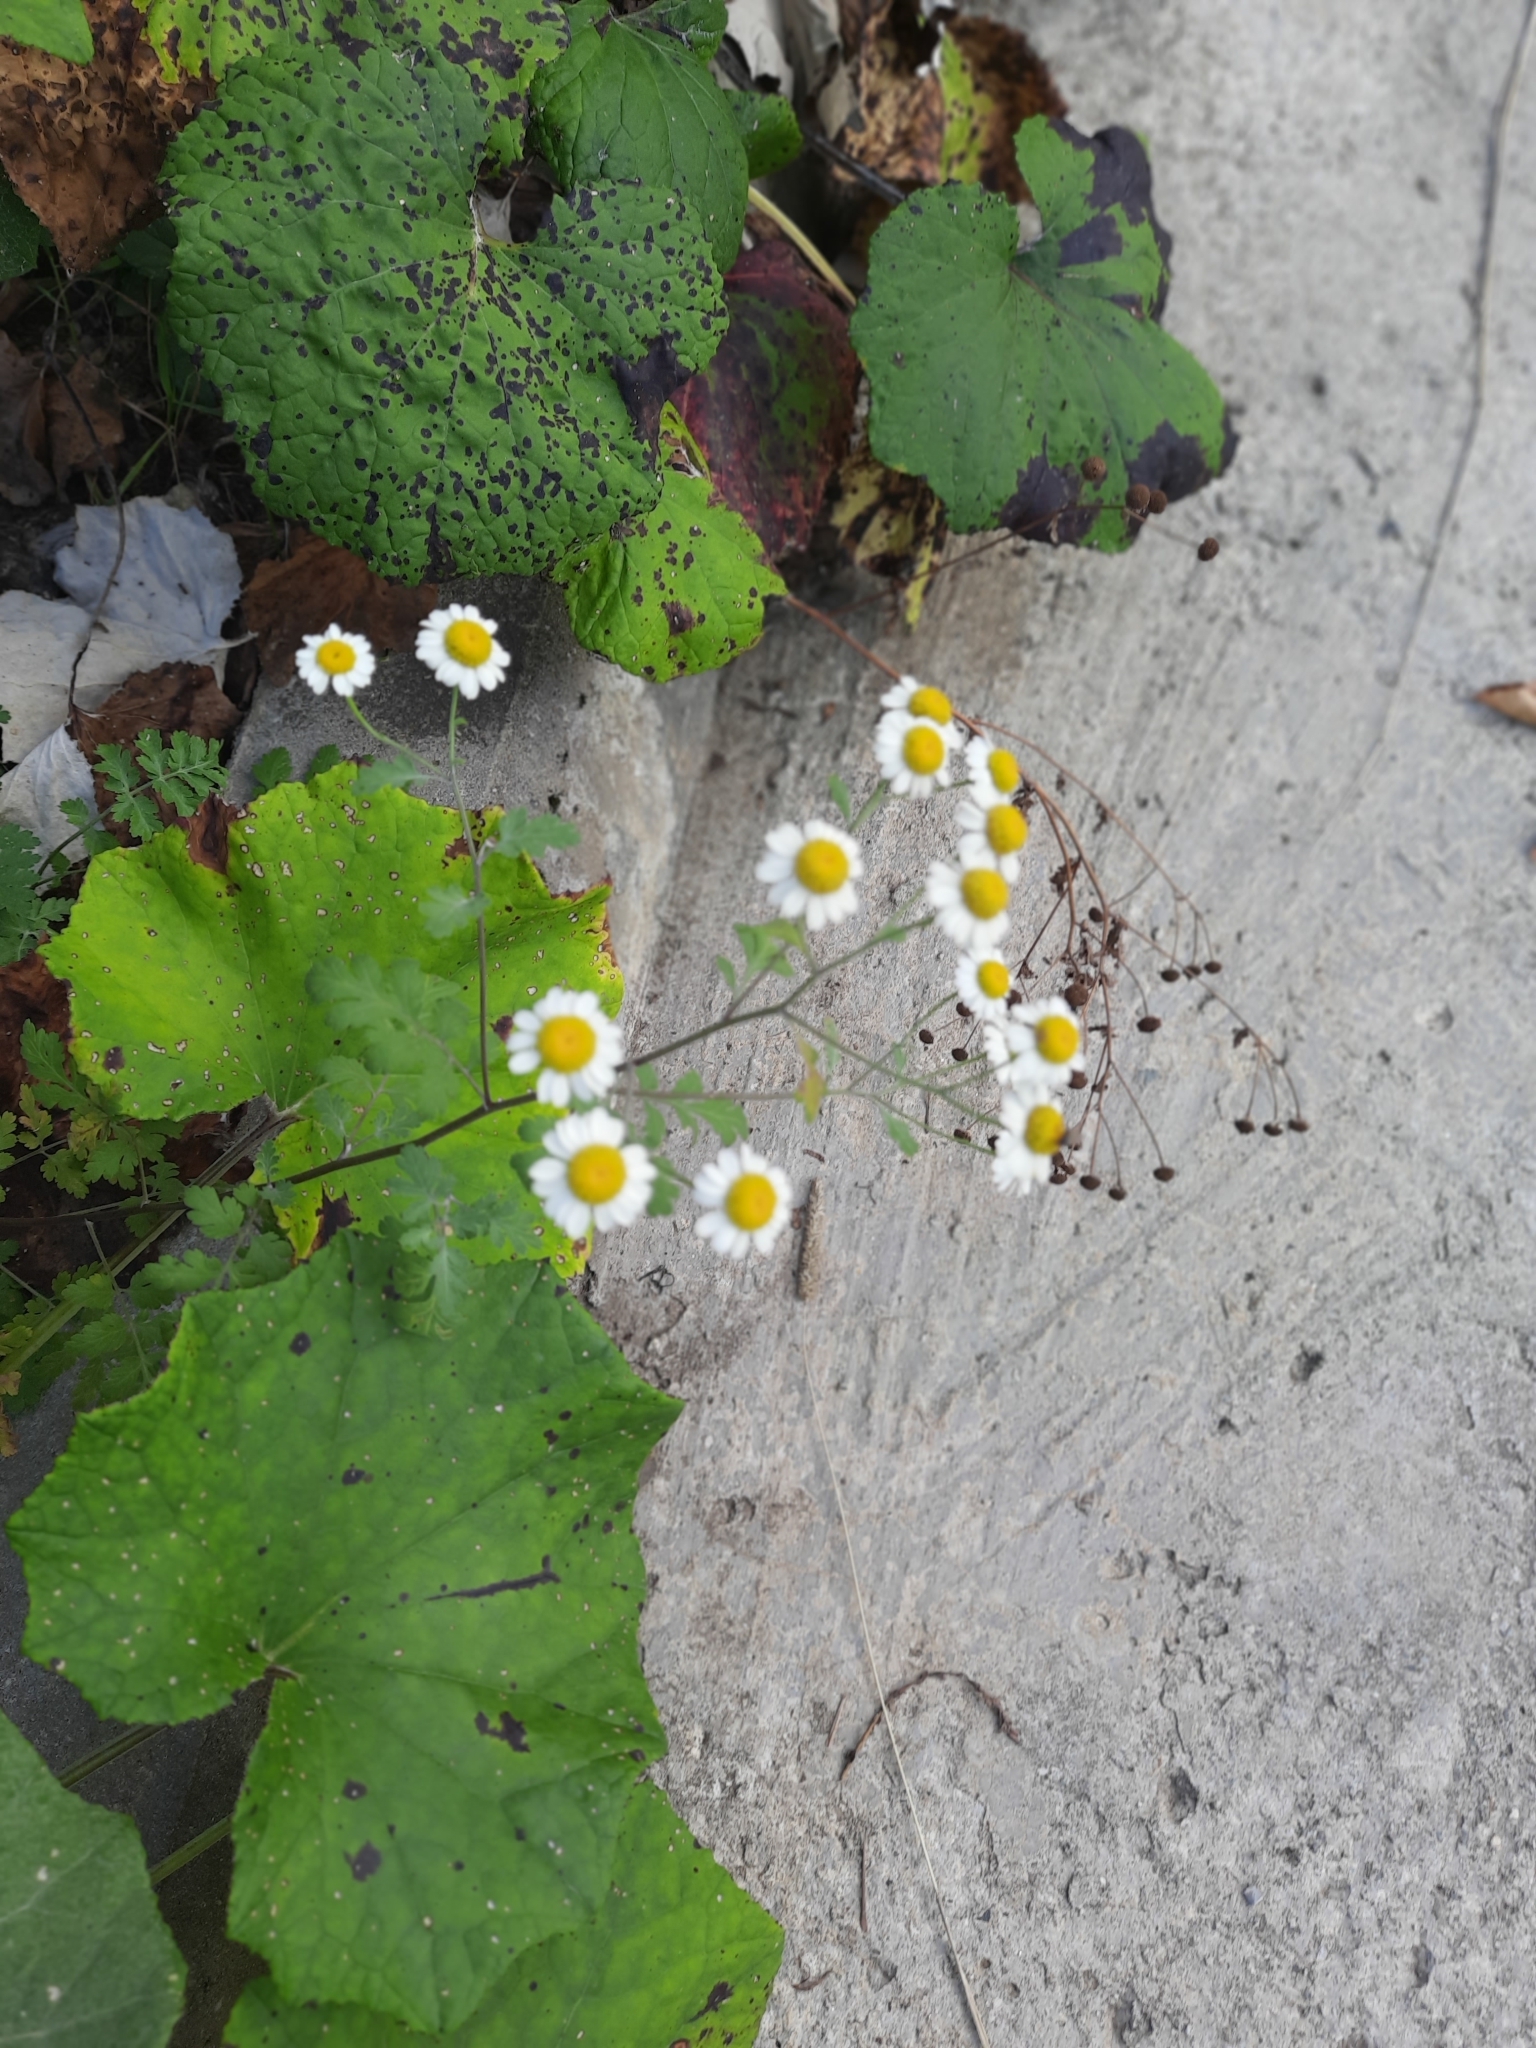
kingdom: Plantae
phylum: Tracheophyta
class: Magnoliopsida
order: Asterales
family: Asteraceae
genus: Tanacetum
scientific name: Tanacetum partheniifolium
